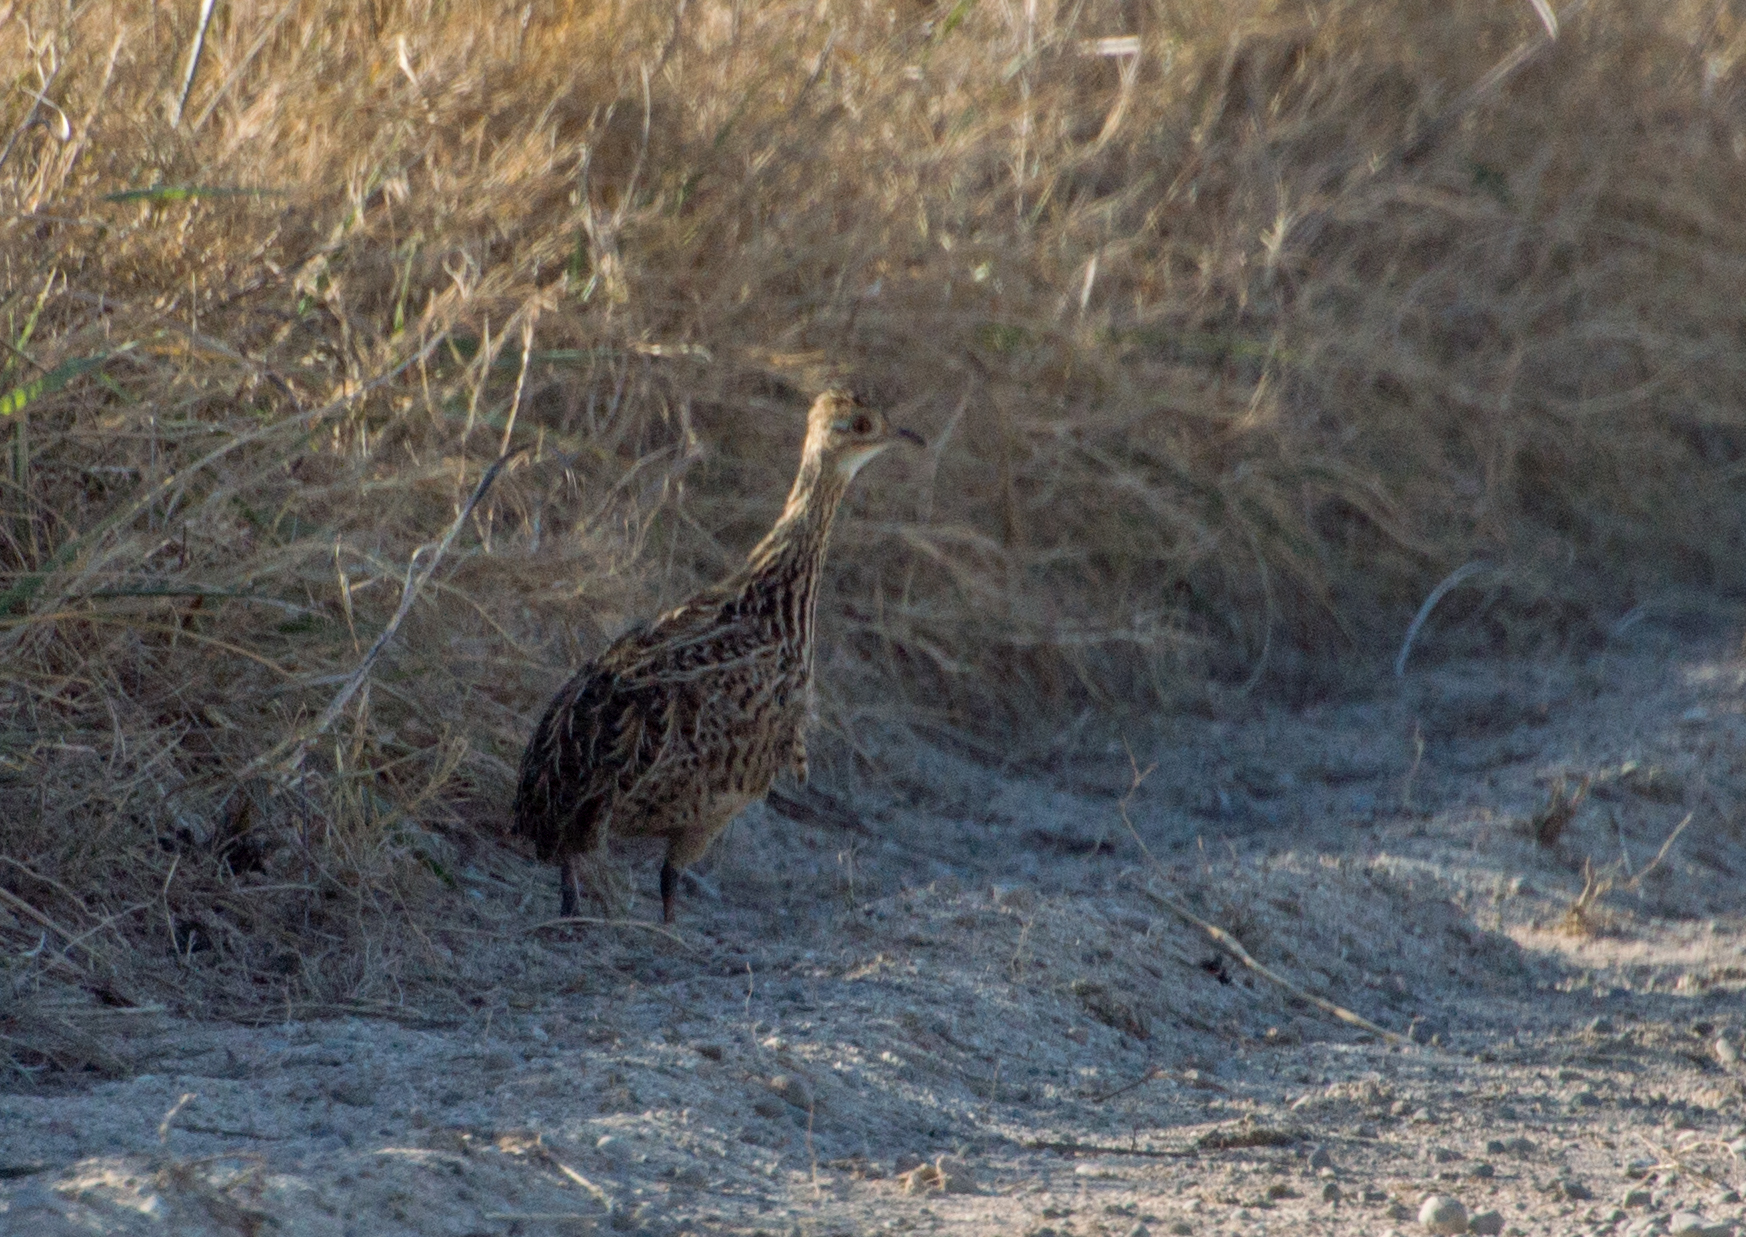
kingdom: Animalia
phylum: Chordata
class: Aves
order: Tinamiformes
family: Tinamidae
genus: Nothura
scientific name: Nothura maculosa
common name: Spotted nothura
